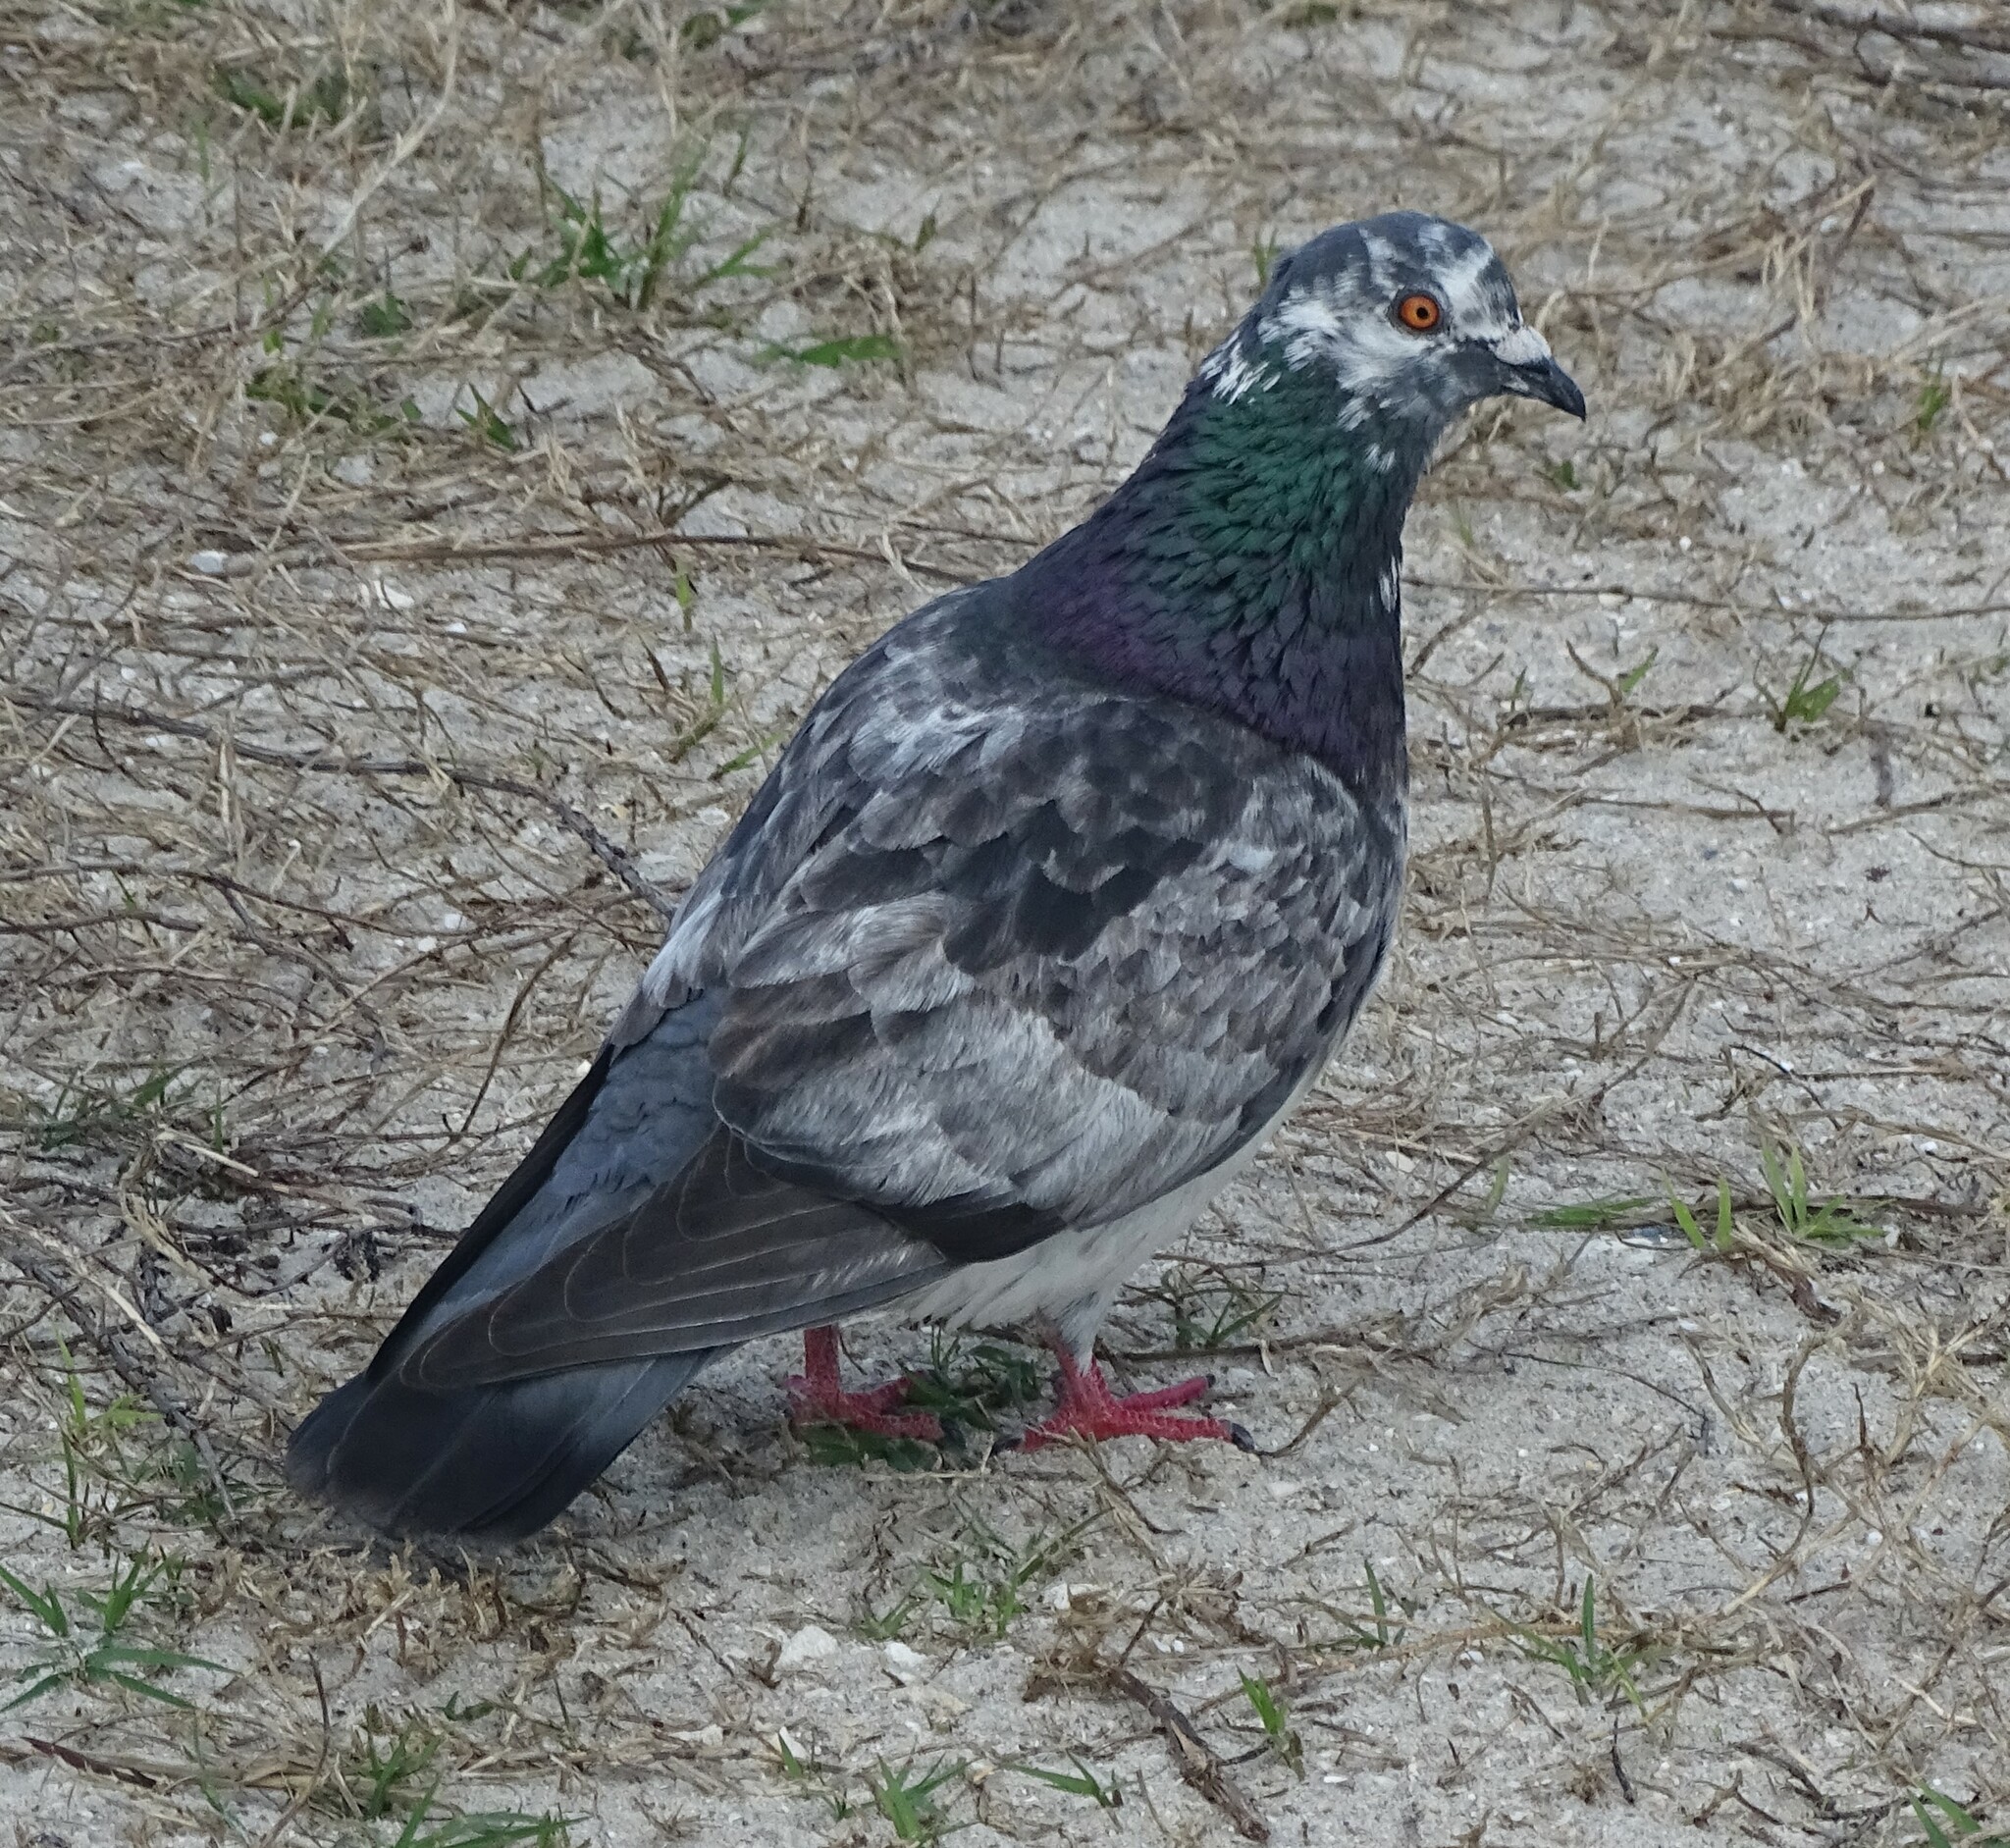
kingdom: Animalia
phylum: Chordata
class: Aves
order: Columbiformes
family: Columbidae
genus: Columba
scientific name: Columba livia
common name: Rock pigeon
